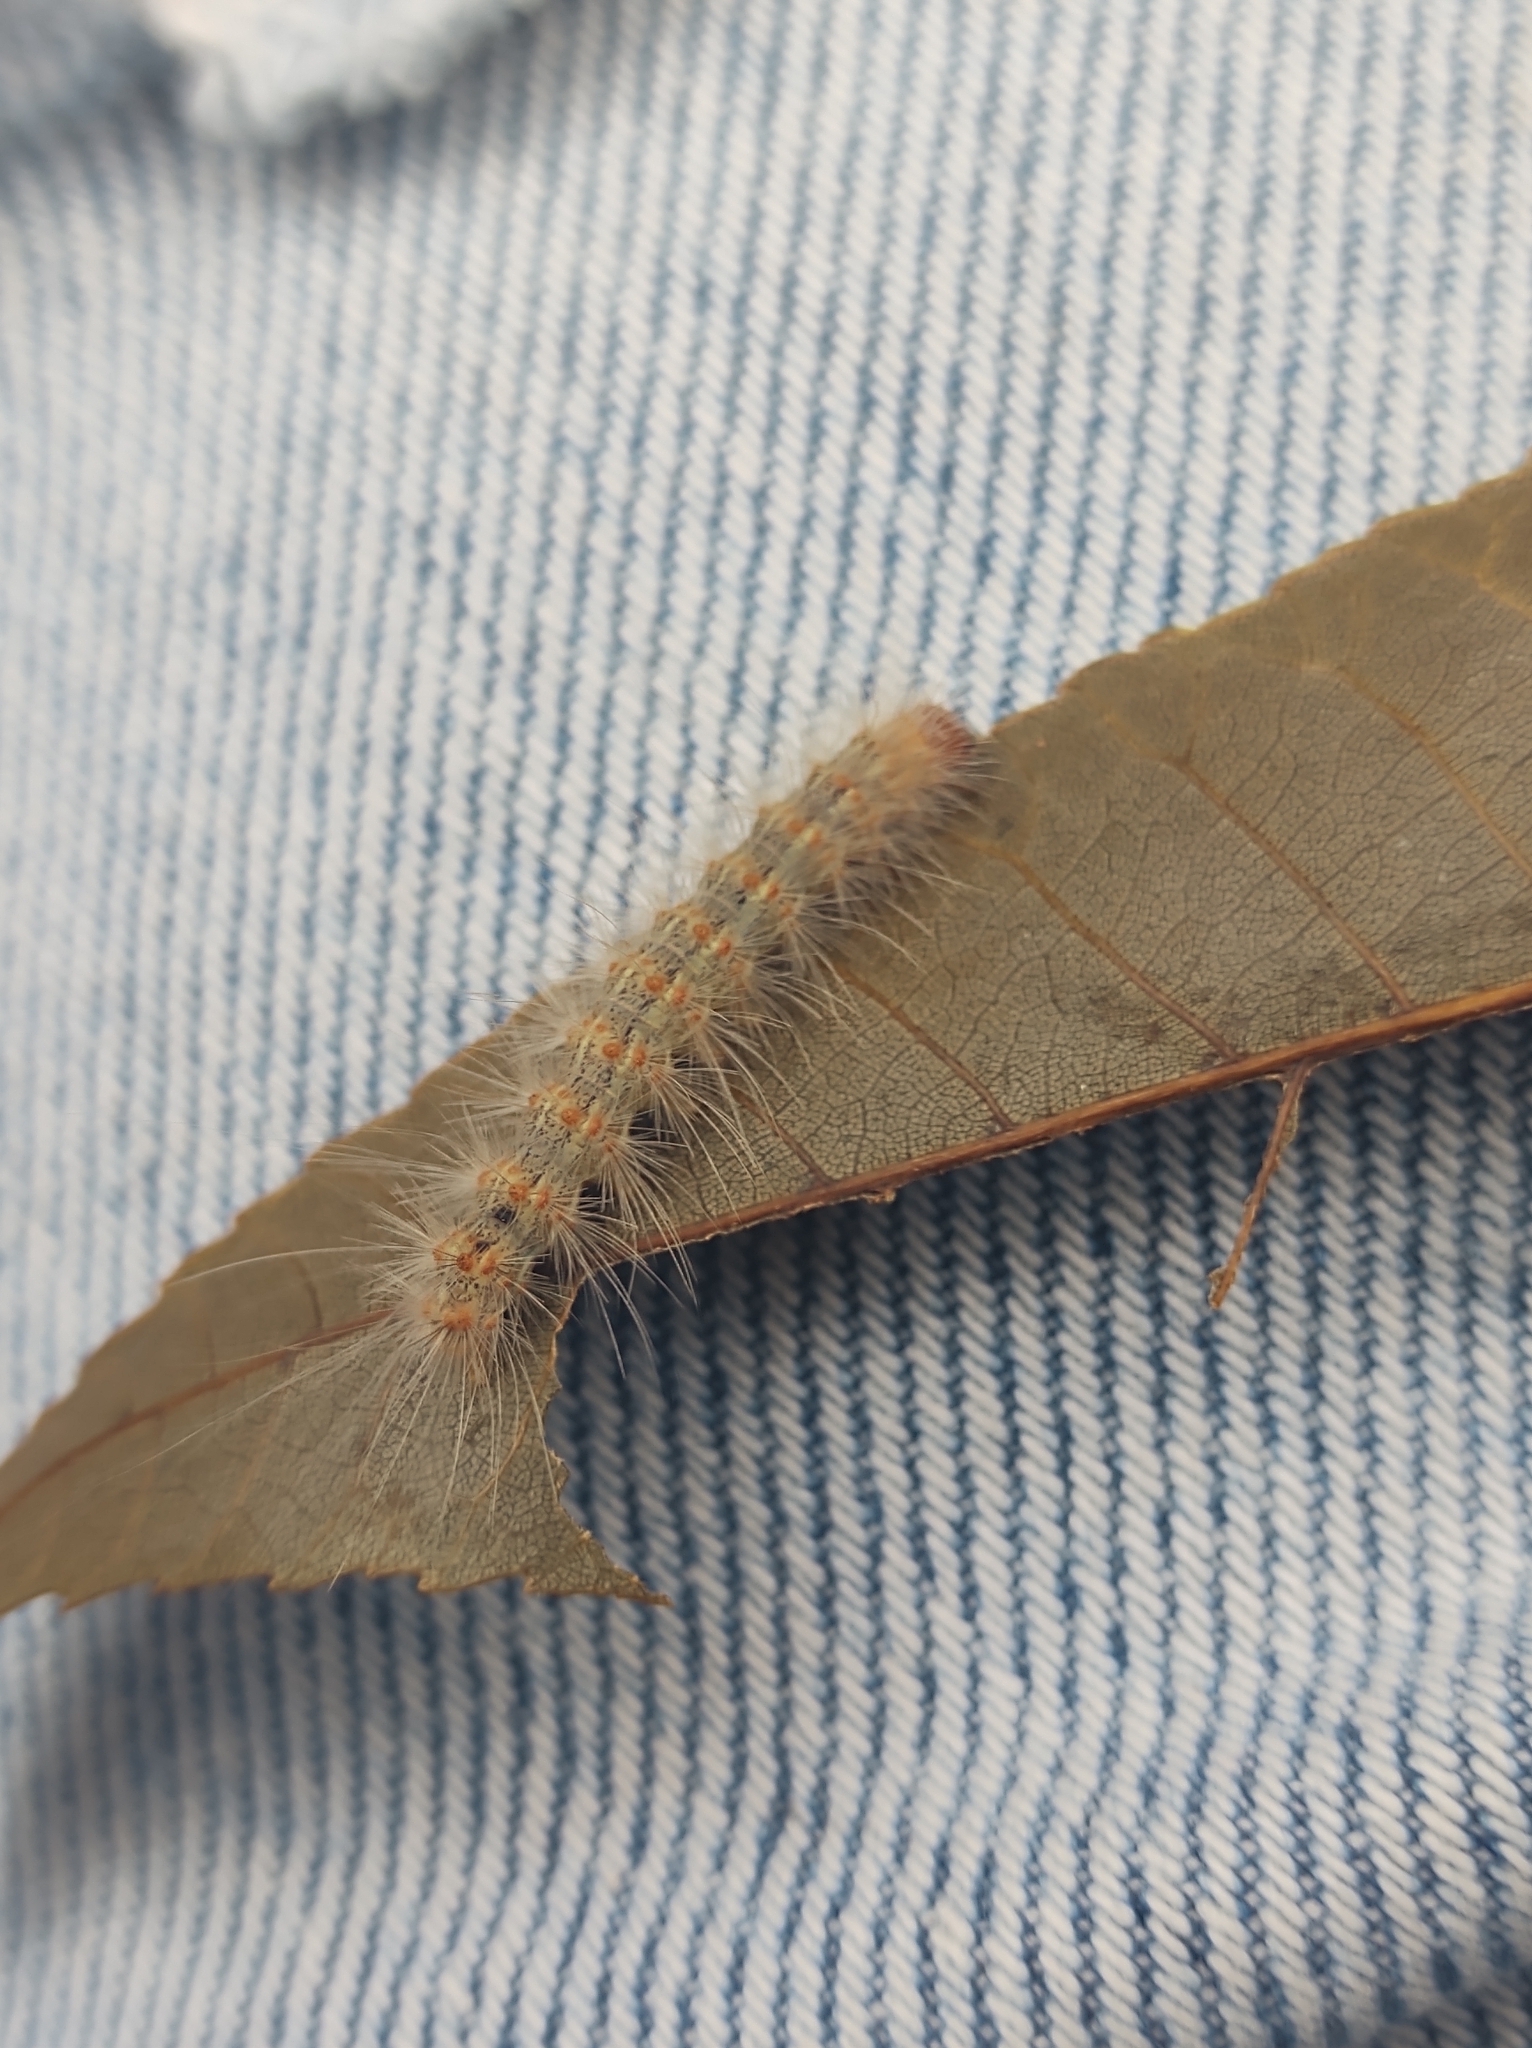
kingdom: Animalia
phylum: Arthropoda
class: Insecta
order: Lepidoptera
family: Erebidae
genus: Hyphantria
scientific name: Hyphantria cunea
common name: American white moth
